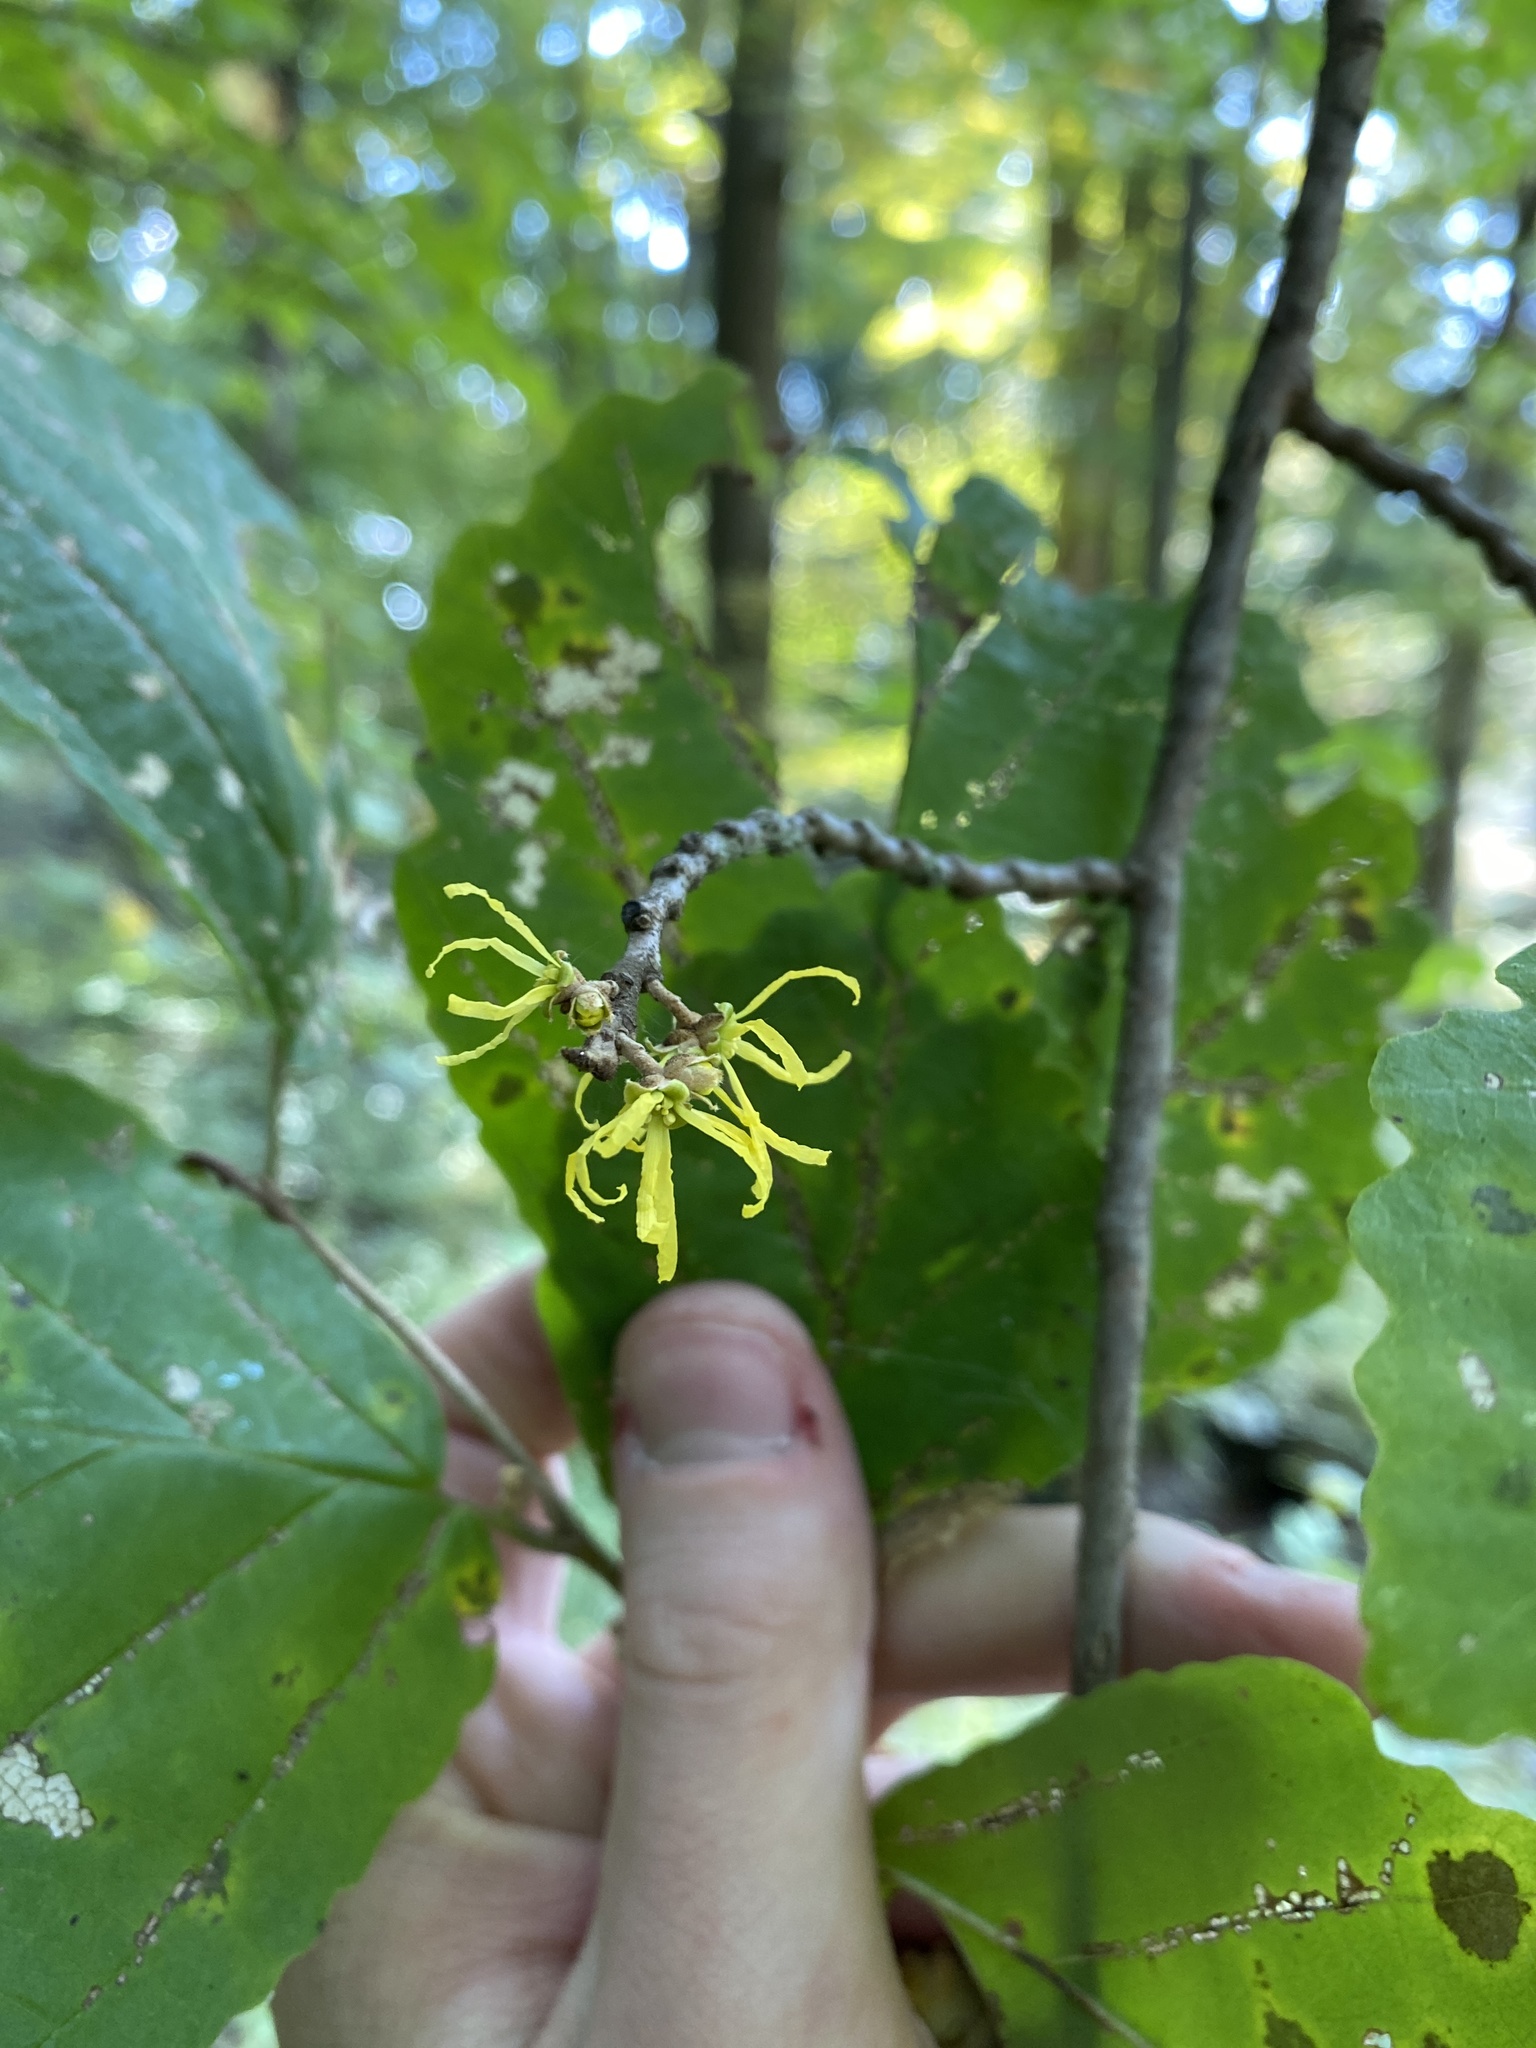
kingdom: Plantae
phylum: Tracheophyta
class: Magnoliopsida
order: Saxifragales
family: Hamamelidaceae
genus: Hamamelis
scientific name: Hamamelis virginiana
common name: Witch-hazel
